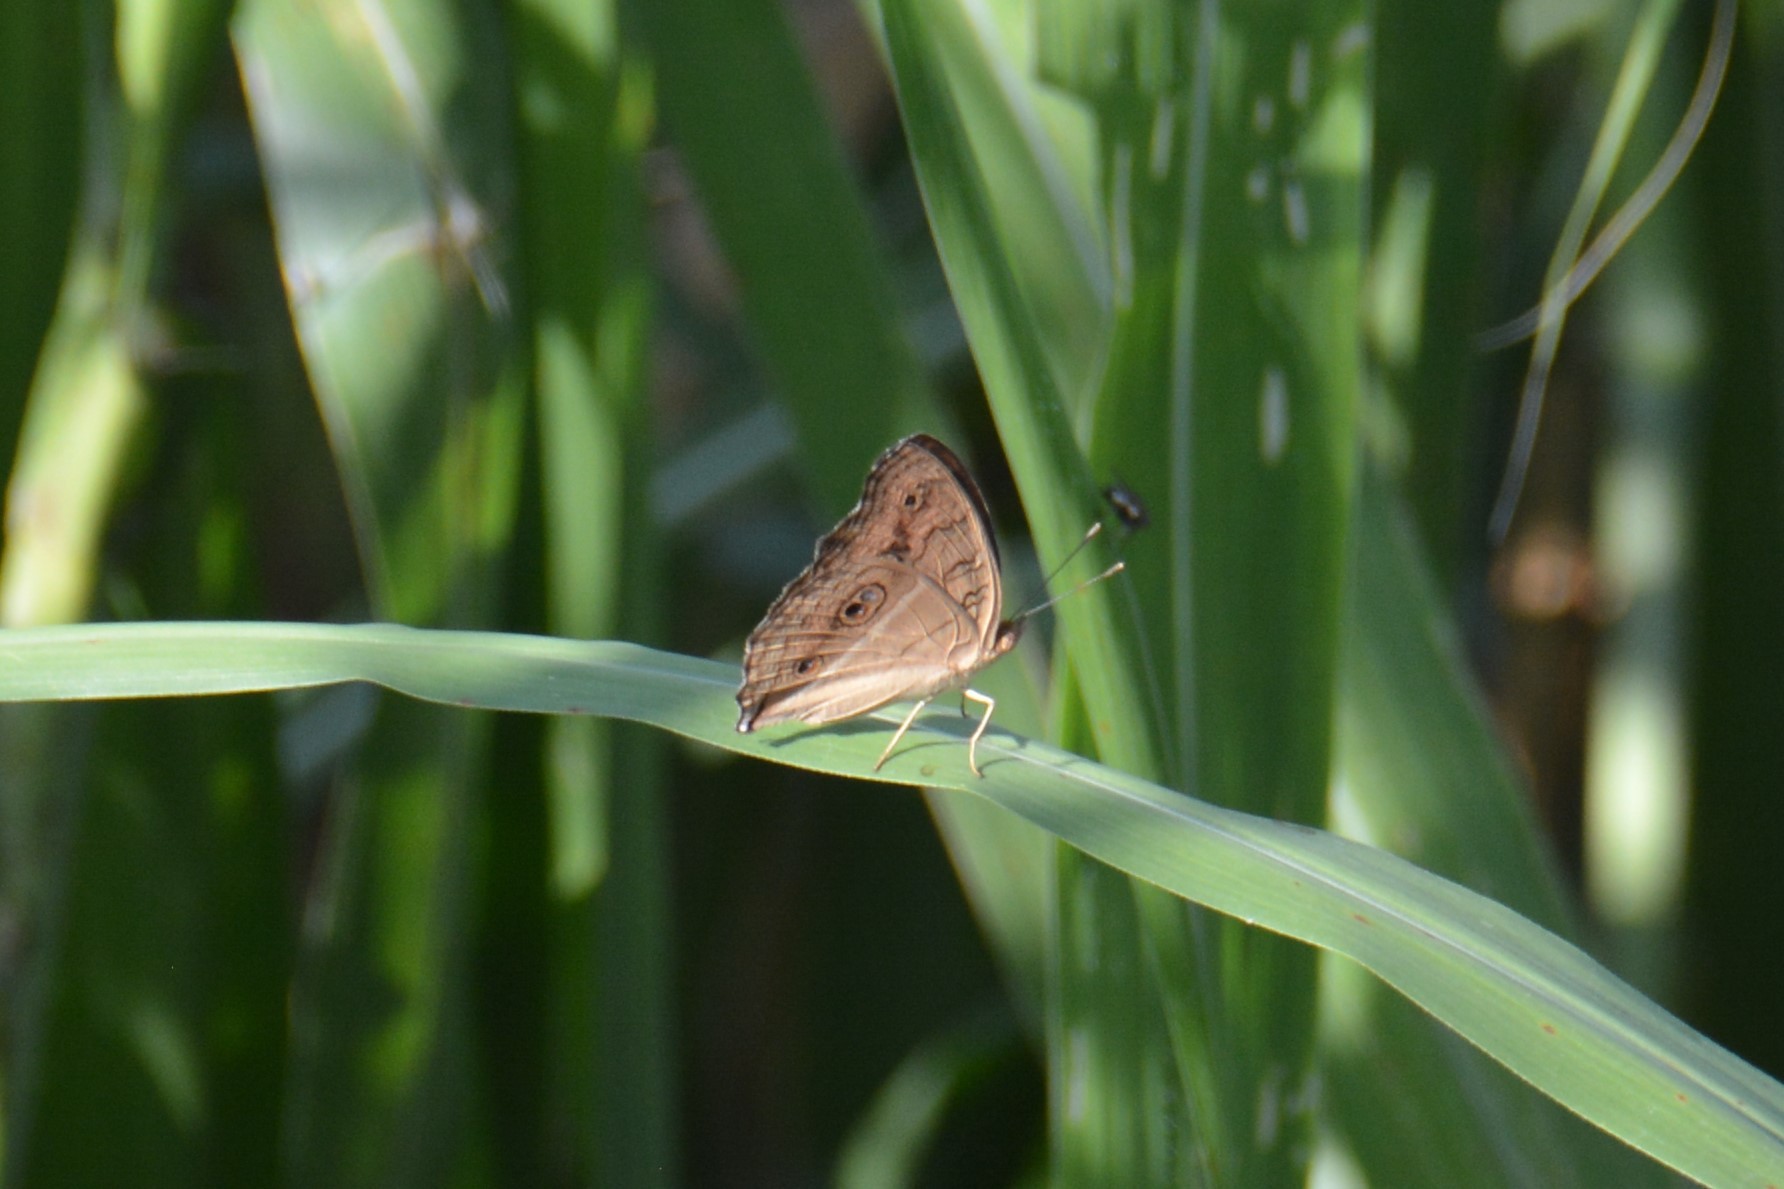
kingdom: Animalia
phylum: Arthropoda
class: Insecta
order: Lepidoptera
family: Nymphalidae
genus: Junonia
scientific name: Junonia almana
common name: Peacock pansy
